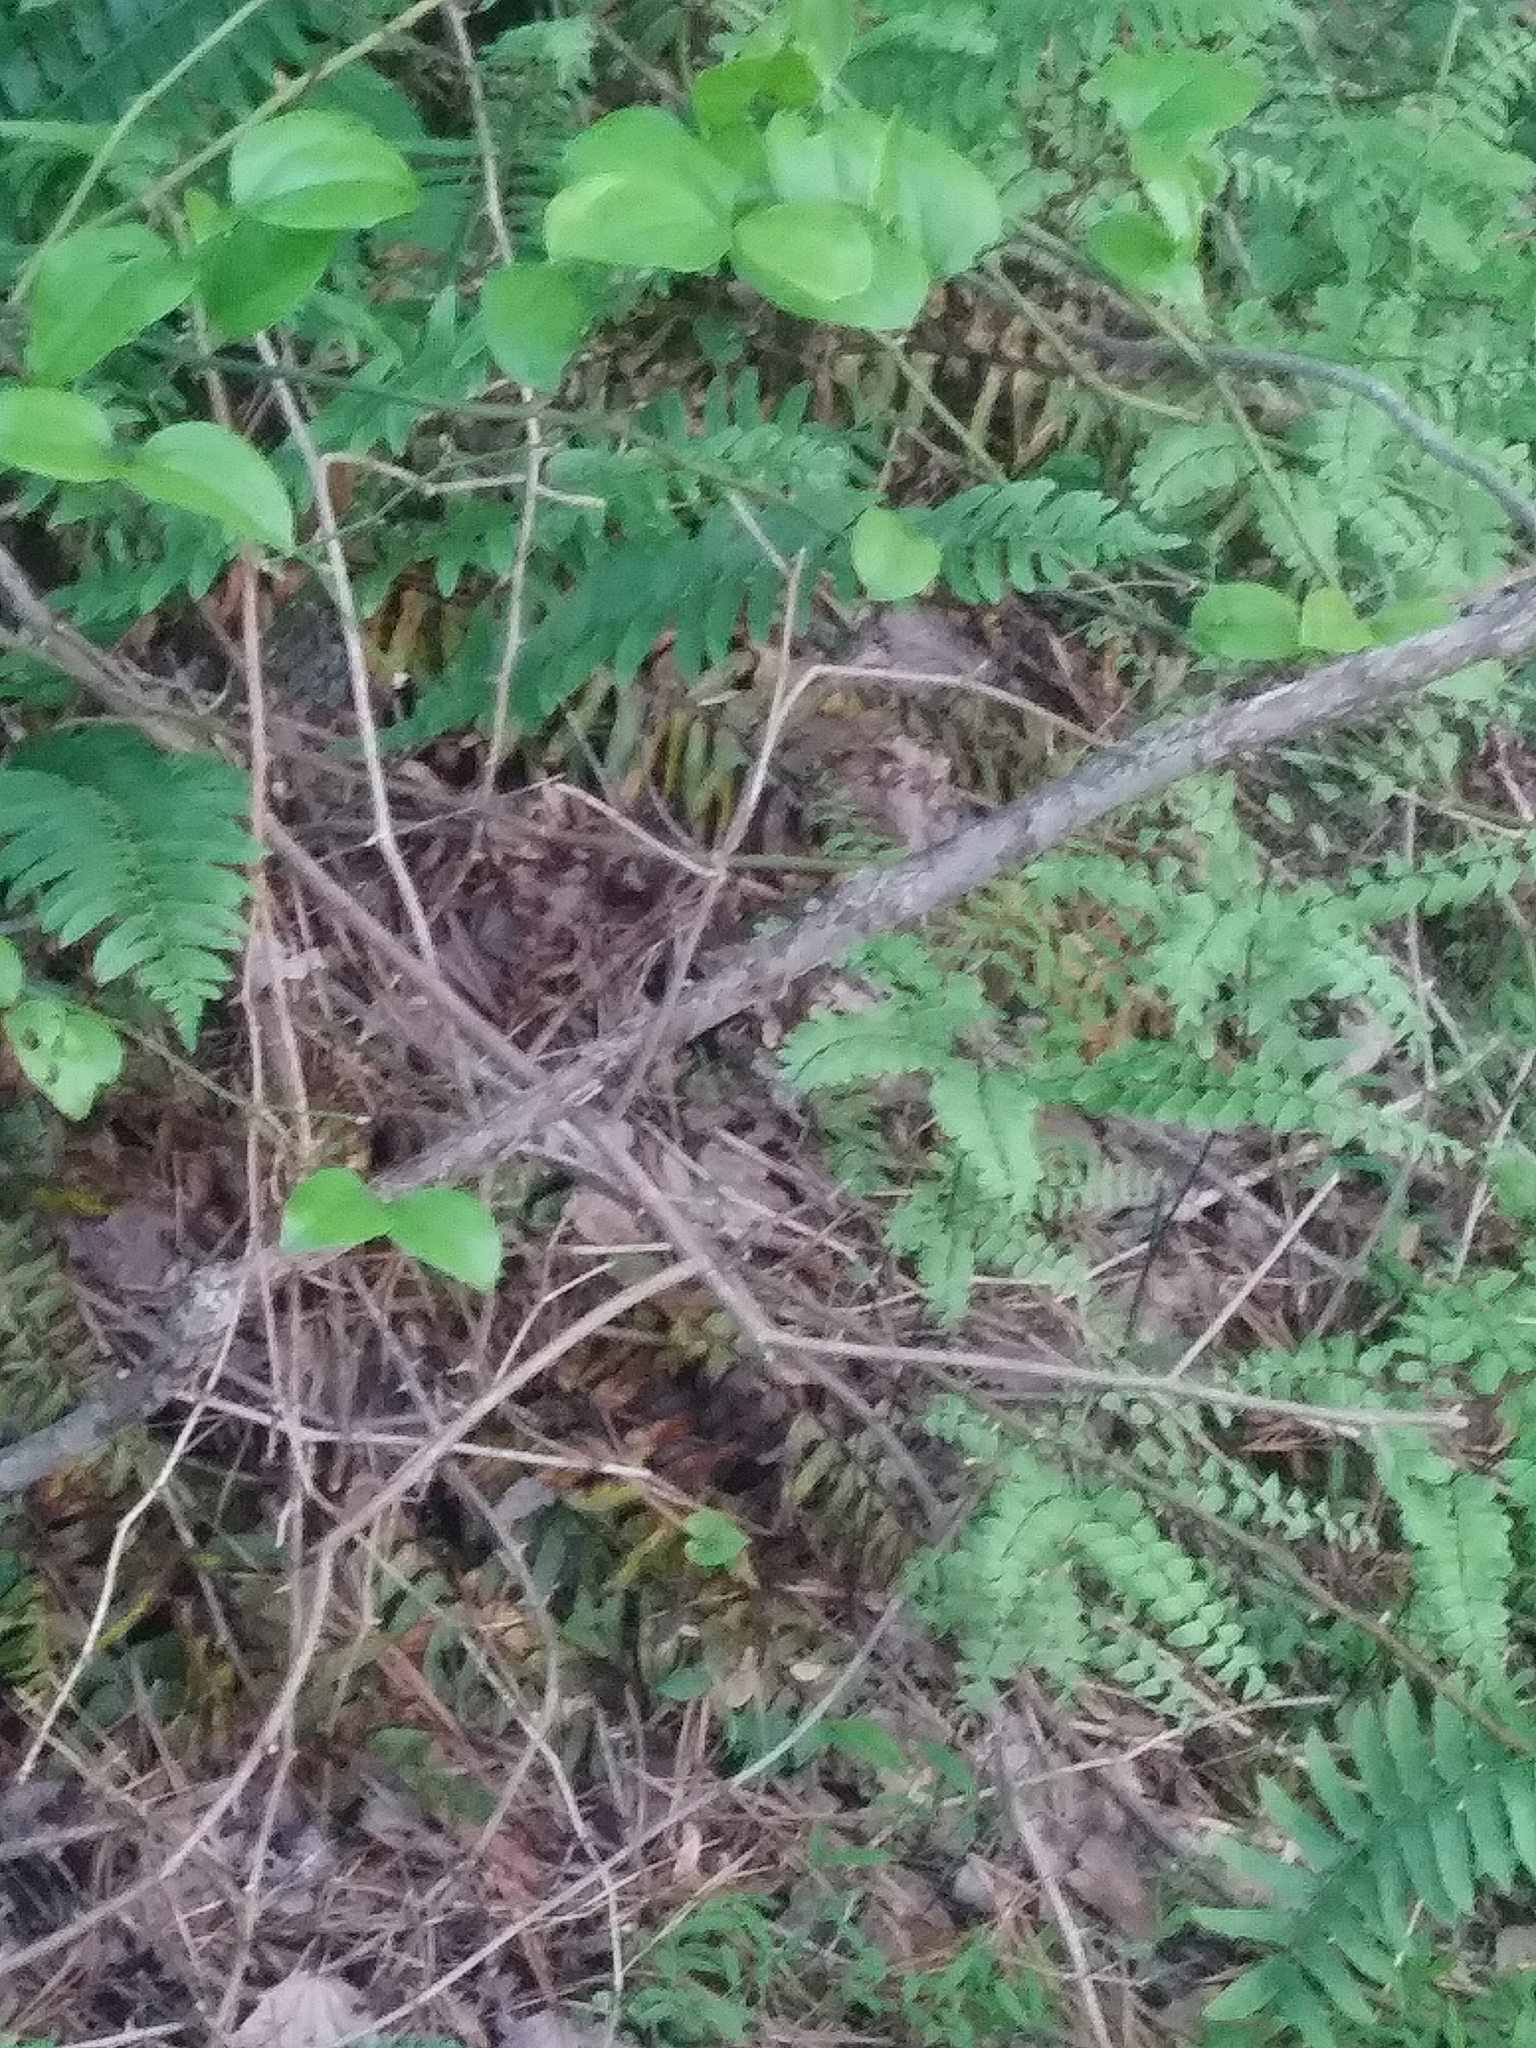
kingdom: Plantae
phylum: Tracheophyta
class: Polypodiopsida
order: Polypodiales
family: Pteridaceae
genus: Adiantum
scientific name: Adiantum pedatum
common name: Five-finger fern
